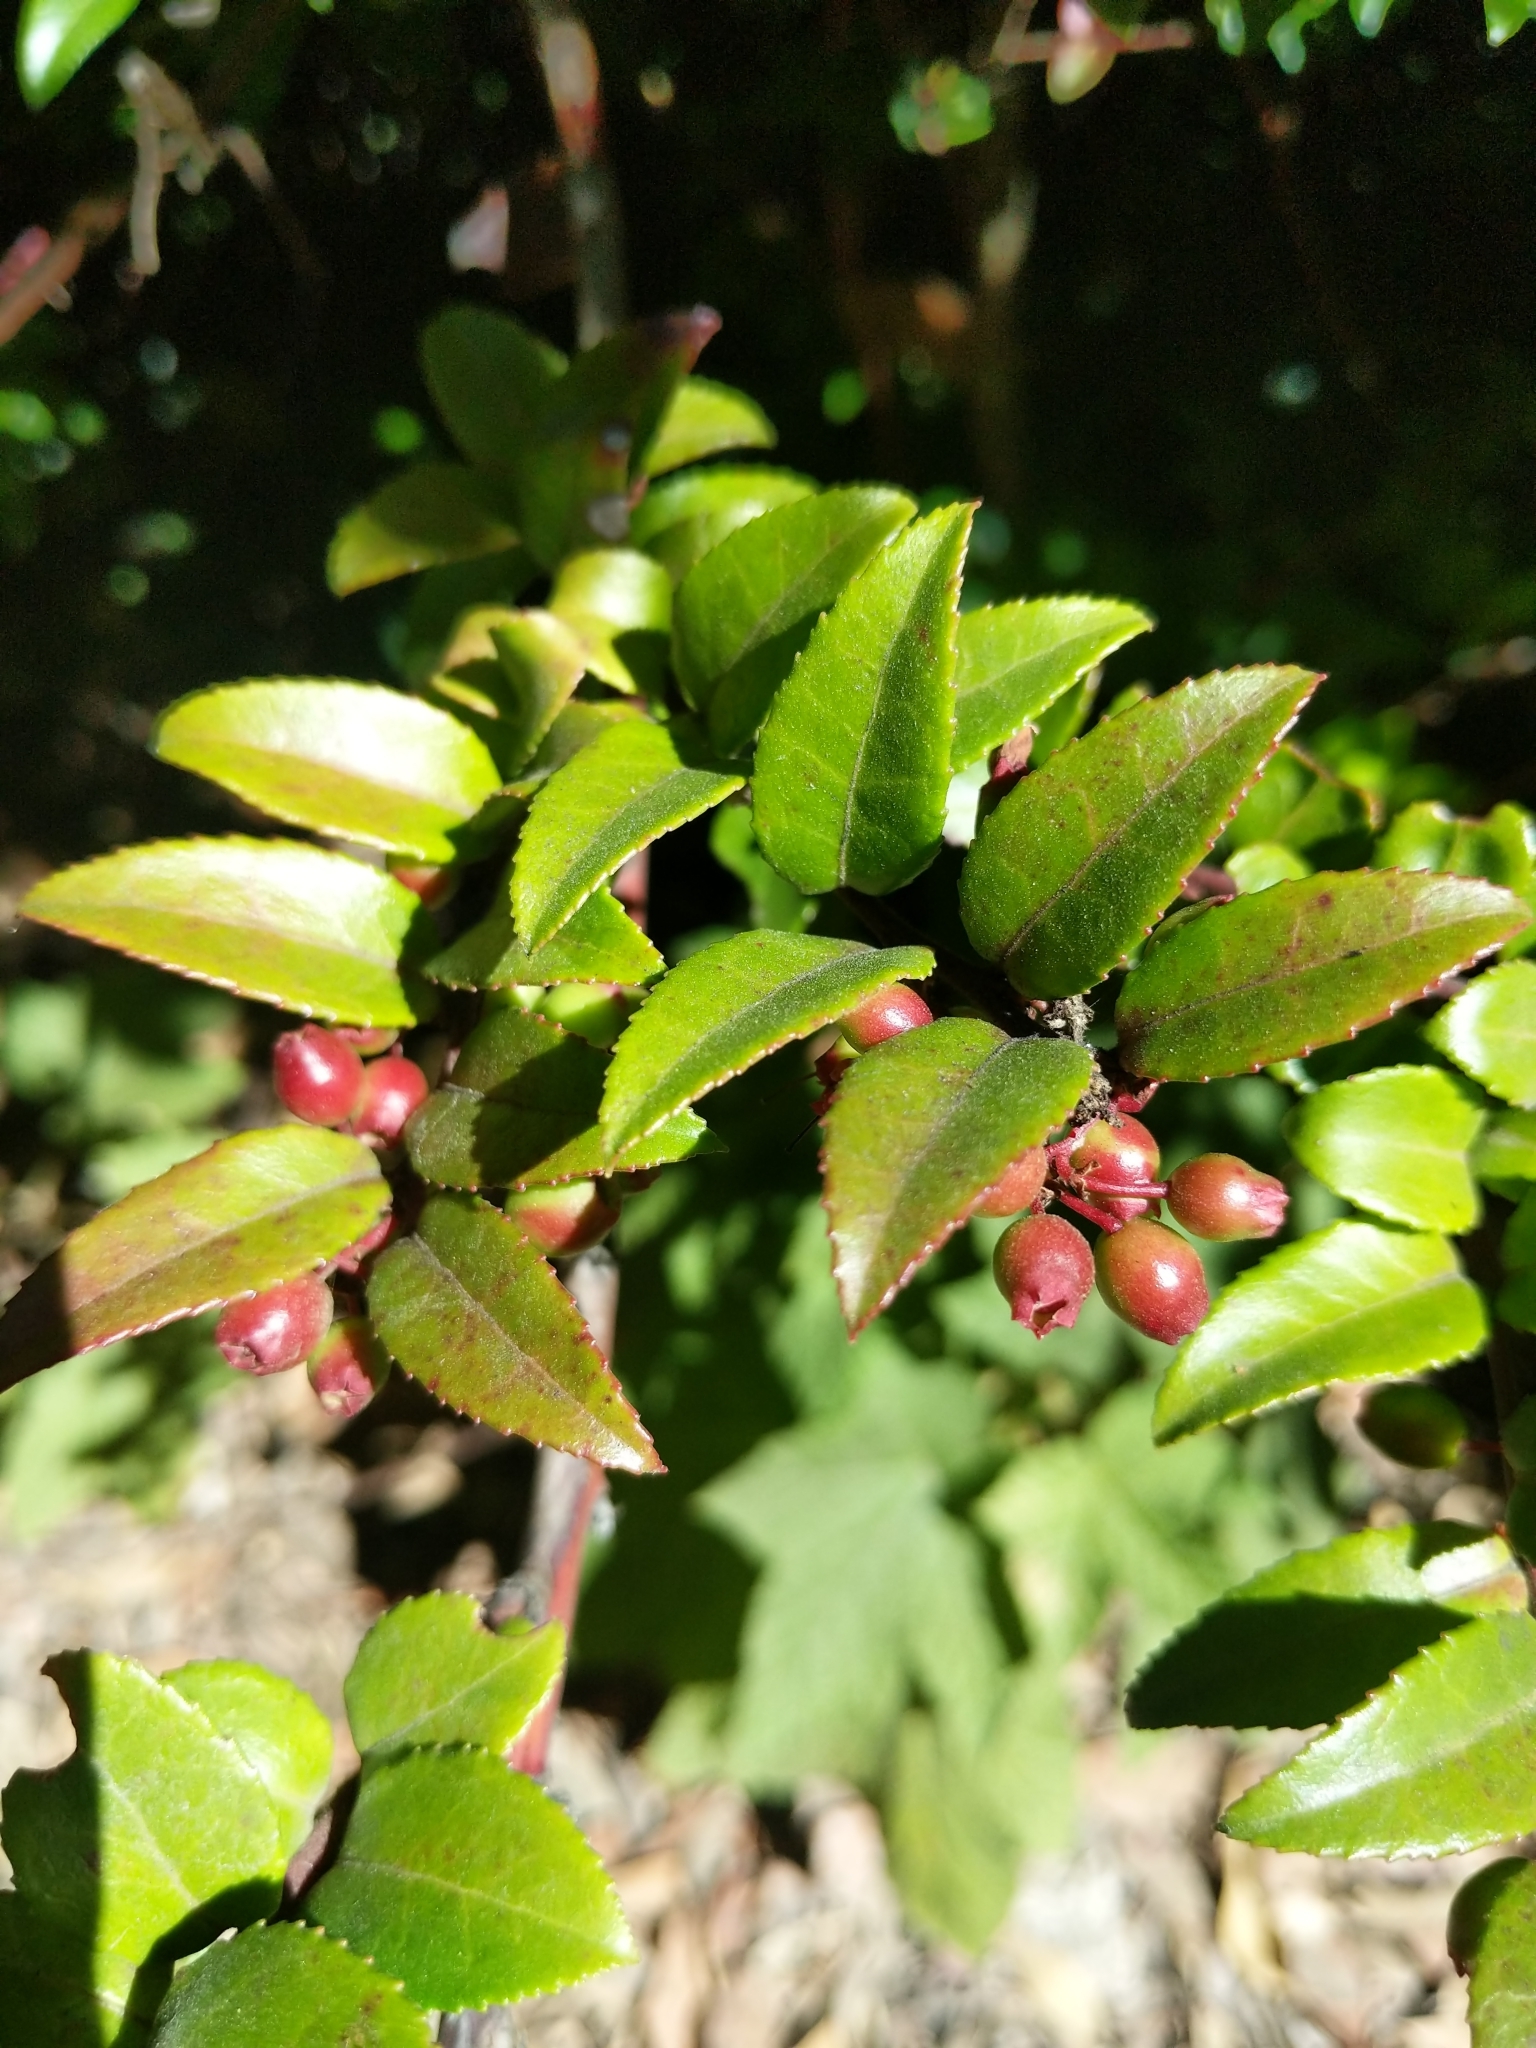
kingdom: Plantae
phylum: Tracheophyta
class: Magnoliopsida
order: Ericales
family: Ericaceae
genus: Vaccinium
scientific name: Vaccinium ovatum
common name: California-huckleberry
